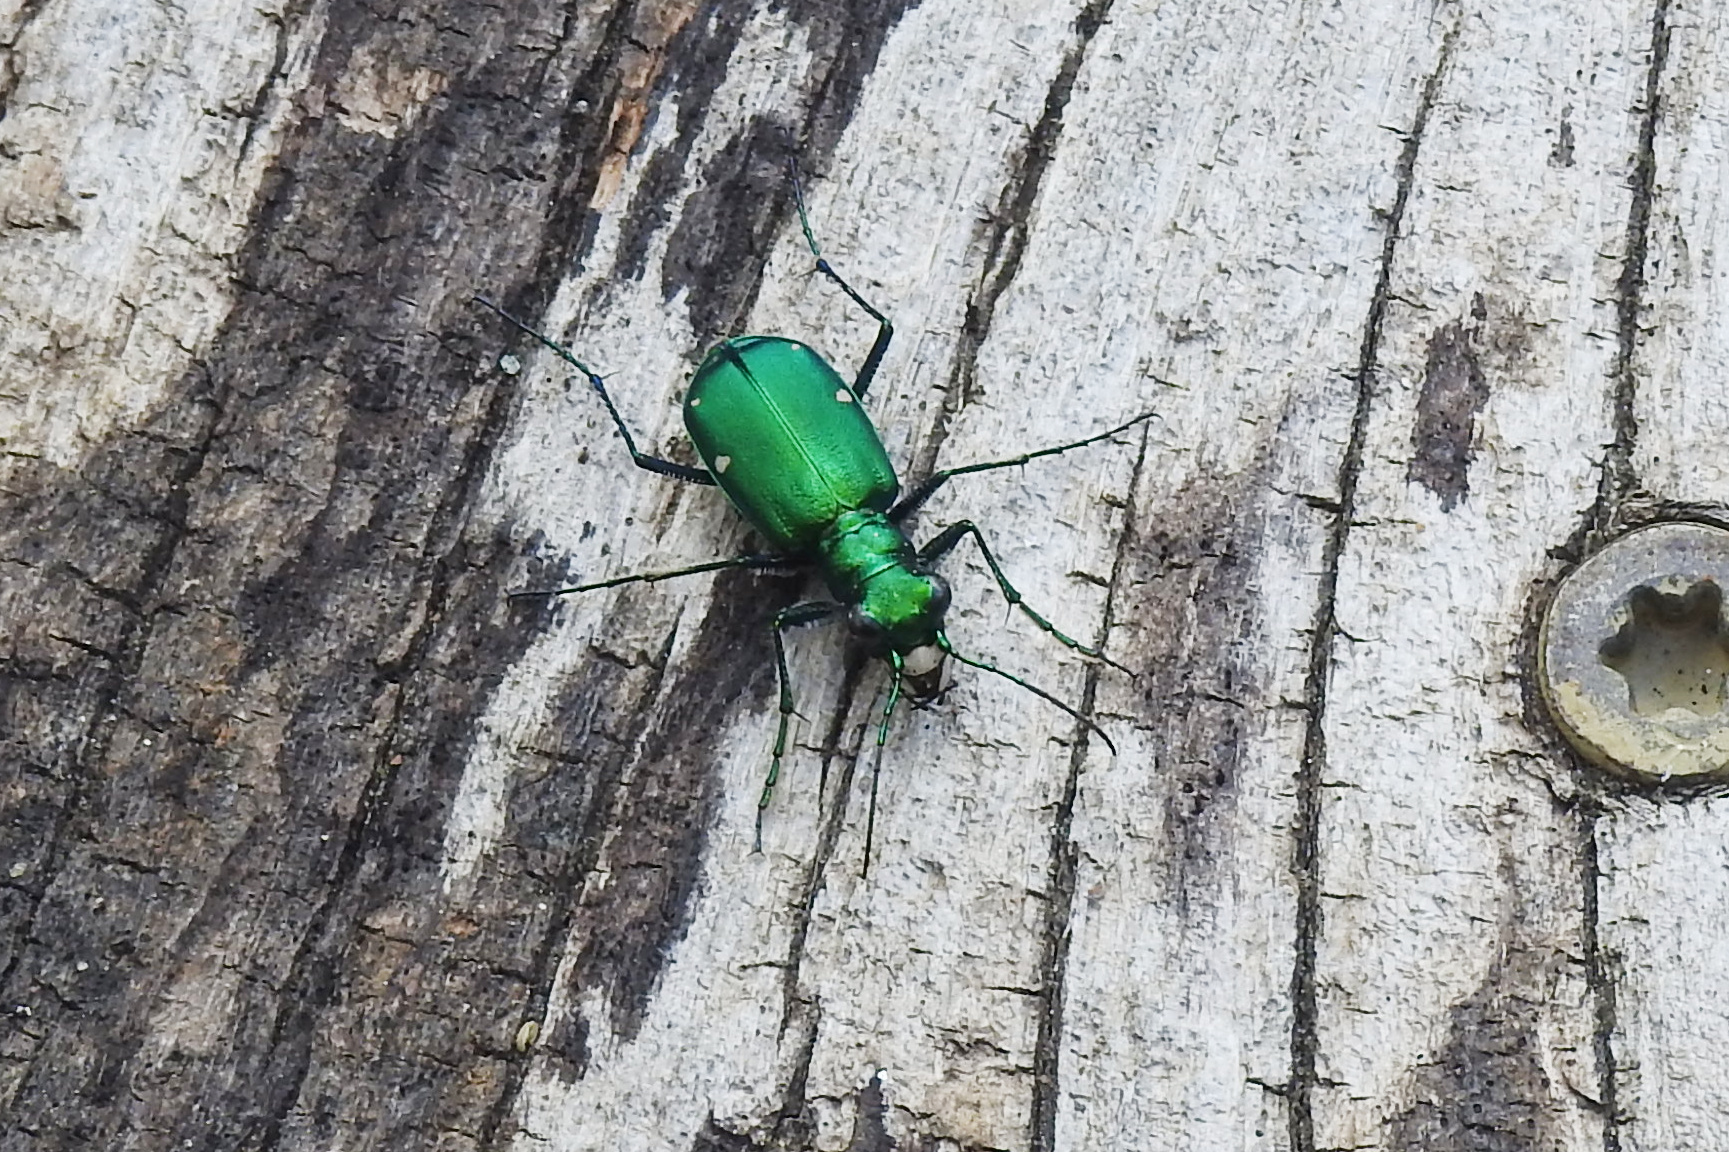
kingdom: Animalia
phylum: Arthropoda
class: Insecta
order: Coleoptera
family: Carabidae
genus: Cicindela
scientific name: Cicindela sexguttata
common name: Six-spotted tiger beetle
